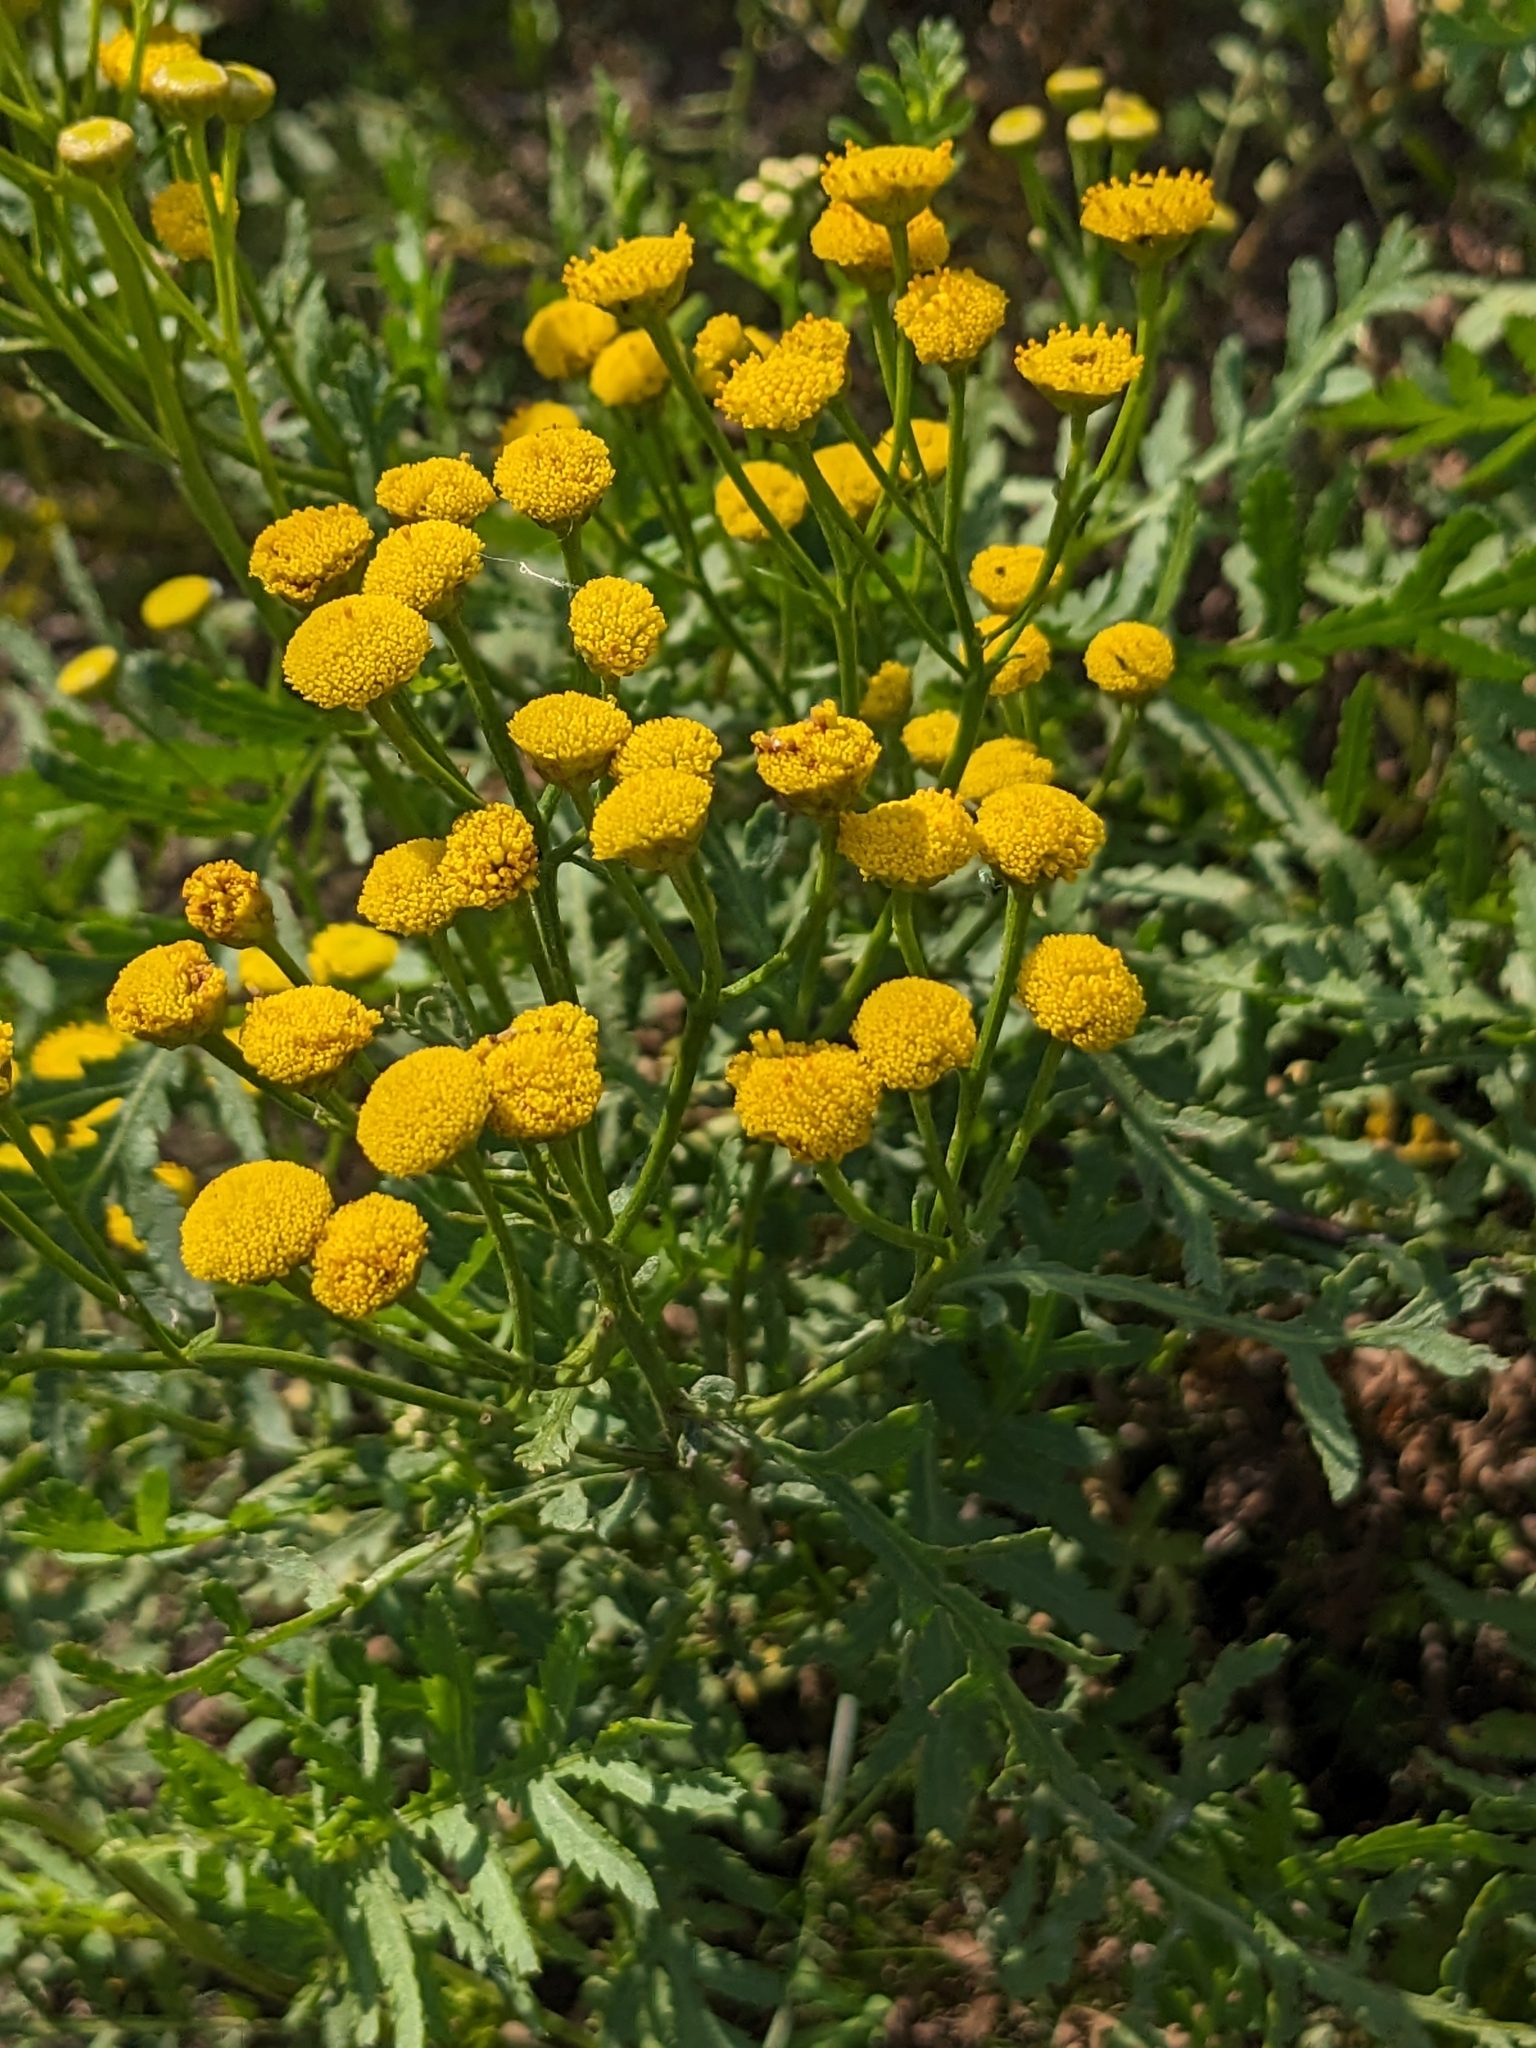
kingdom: Plantae
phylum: Tracheophyta
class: Magnoliopsida
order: Asterales
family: Asteraceae
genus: Tanacetum
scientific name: Tanacetum vulgare
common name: Common tansy
